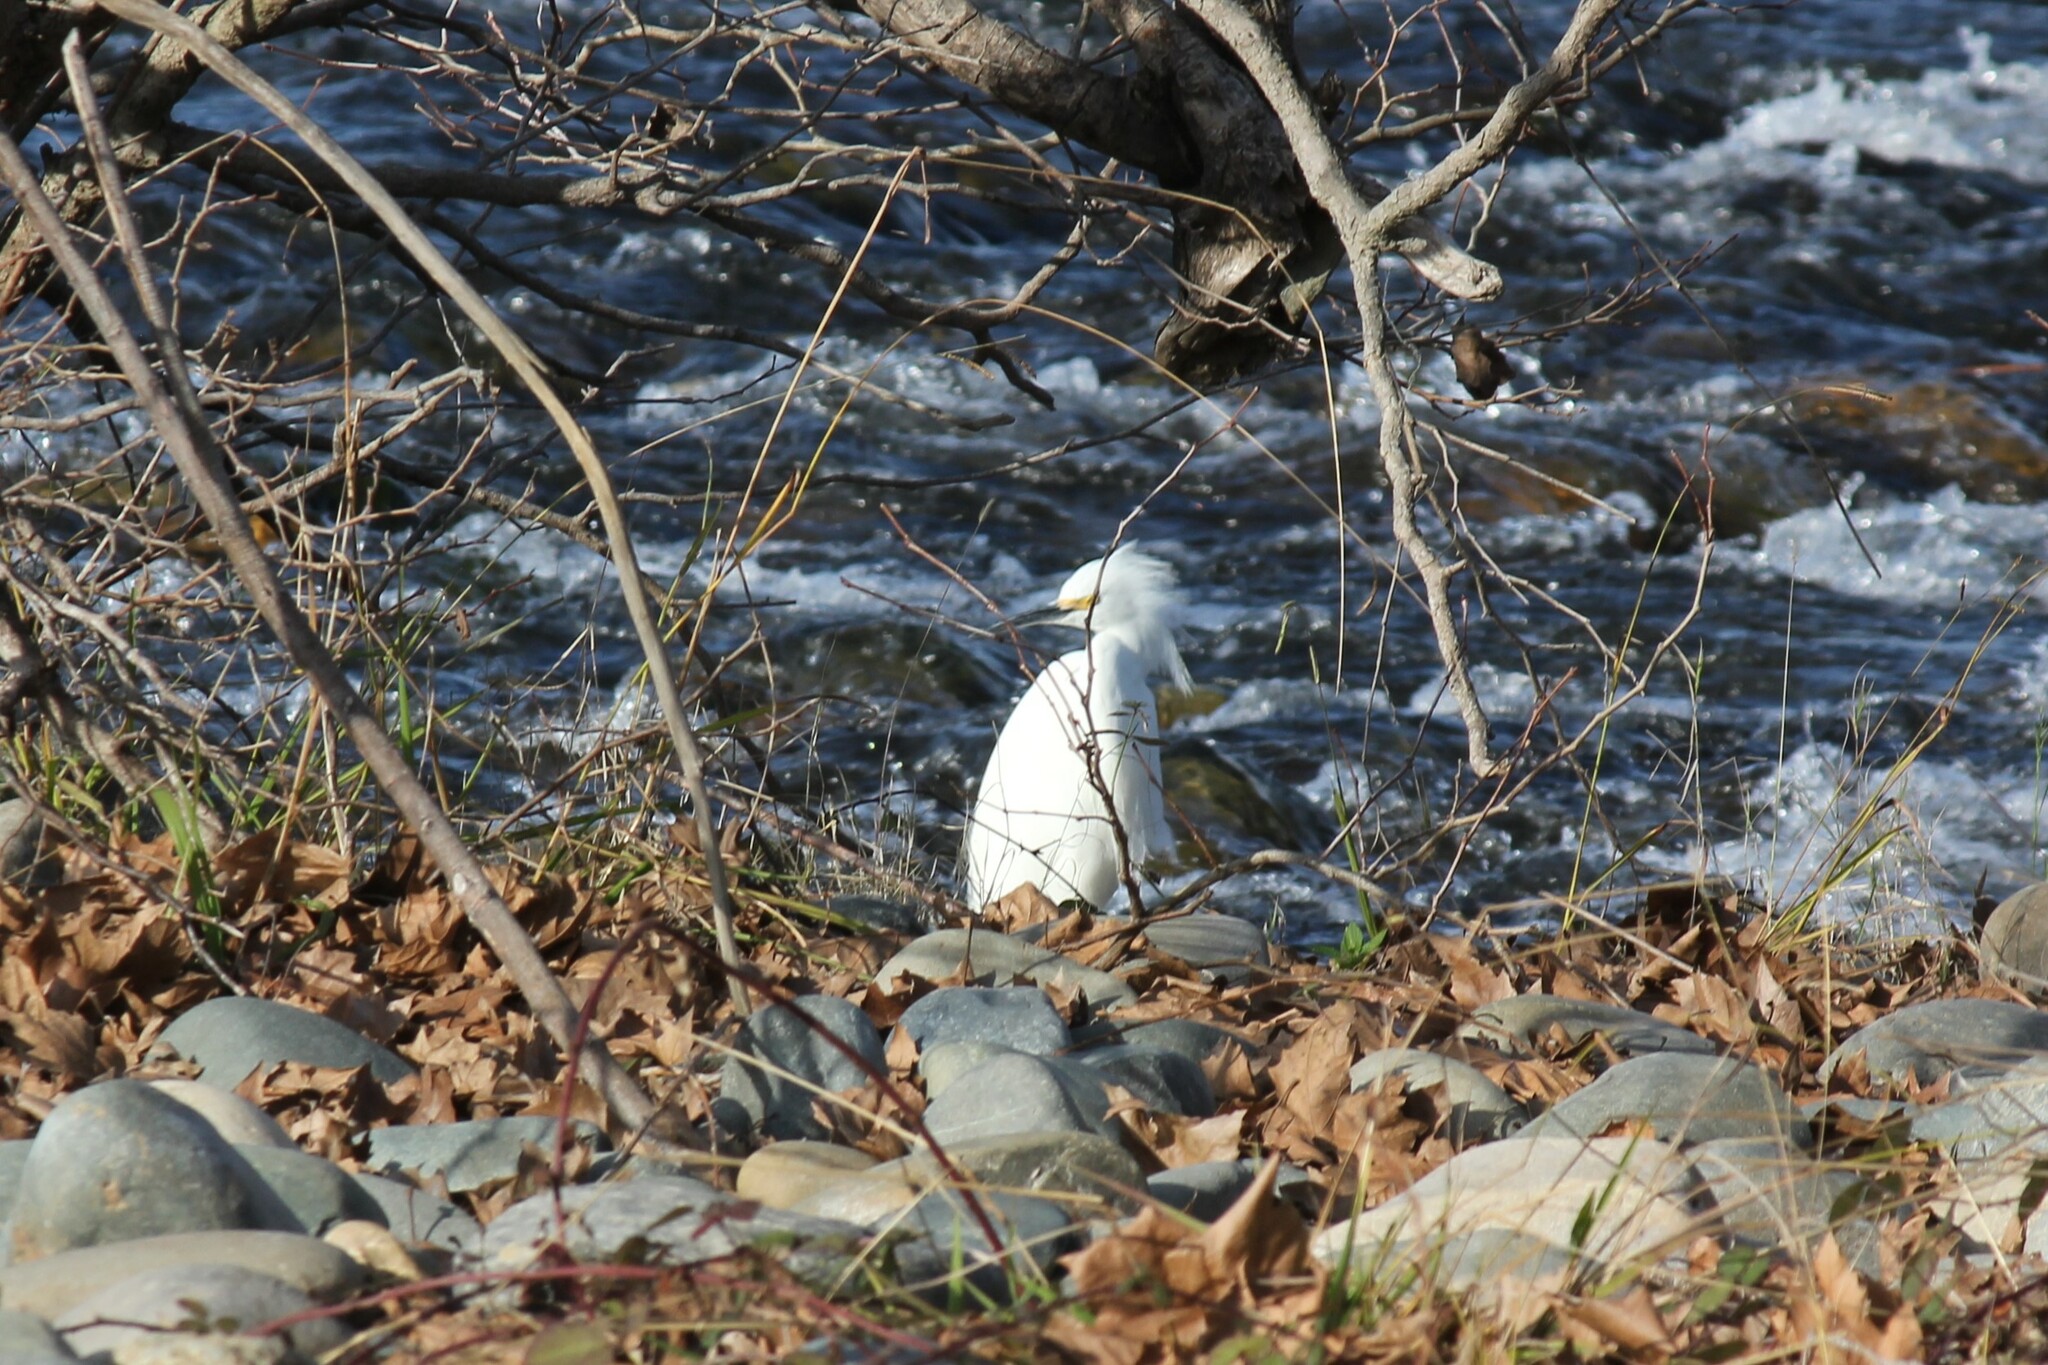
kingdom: Animalia
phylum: Chordata
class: Aves
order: Pelecaniformes
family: Ardeidae
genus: Egretta
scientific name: Egretta thula
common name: Snowy egret
